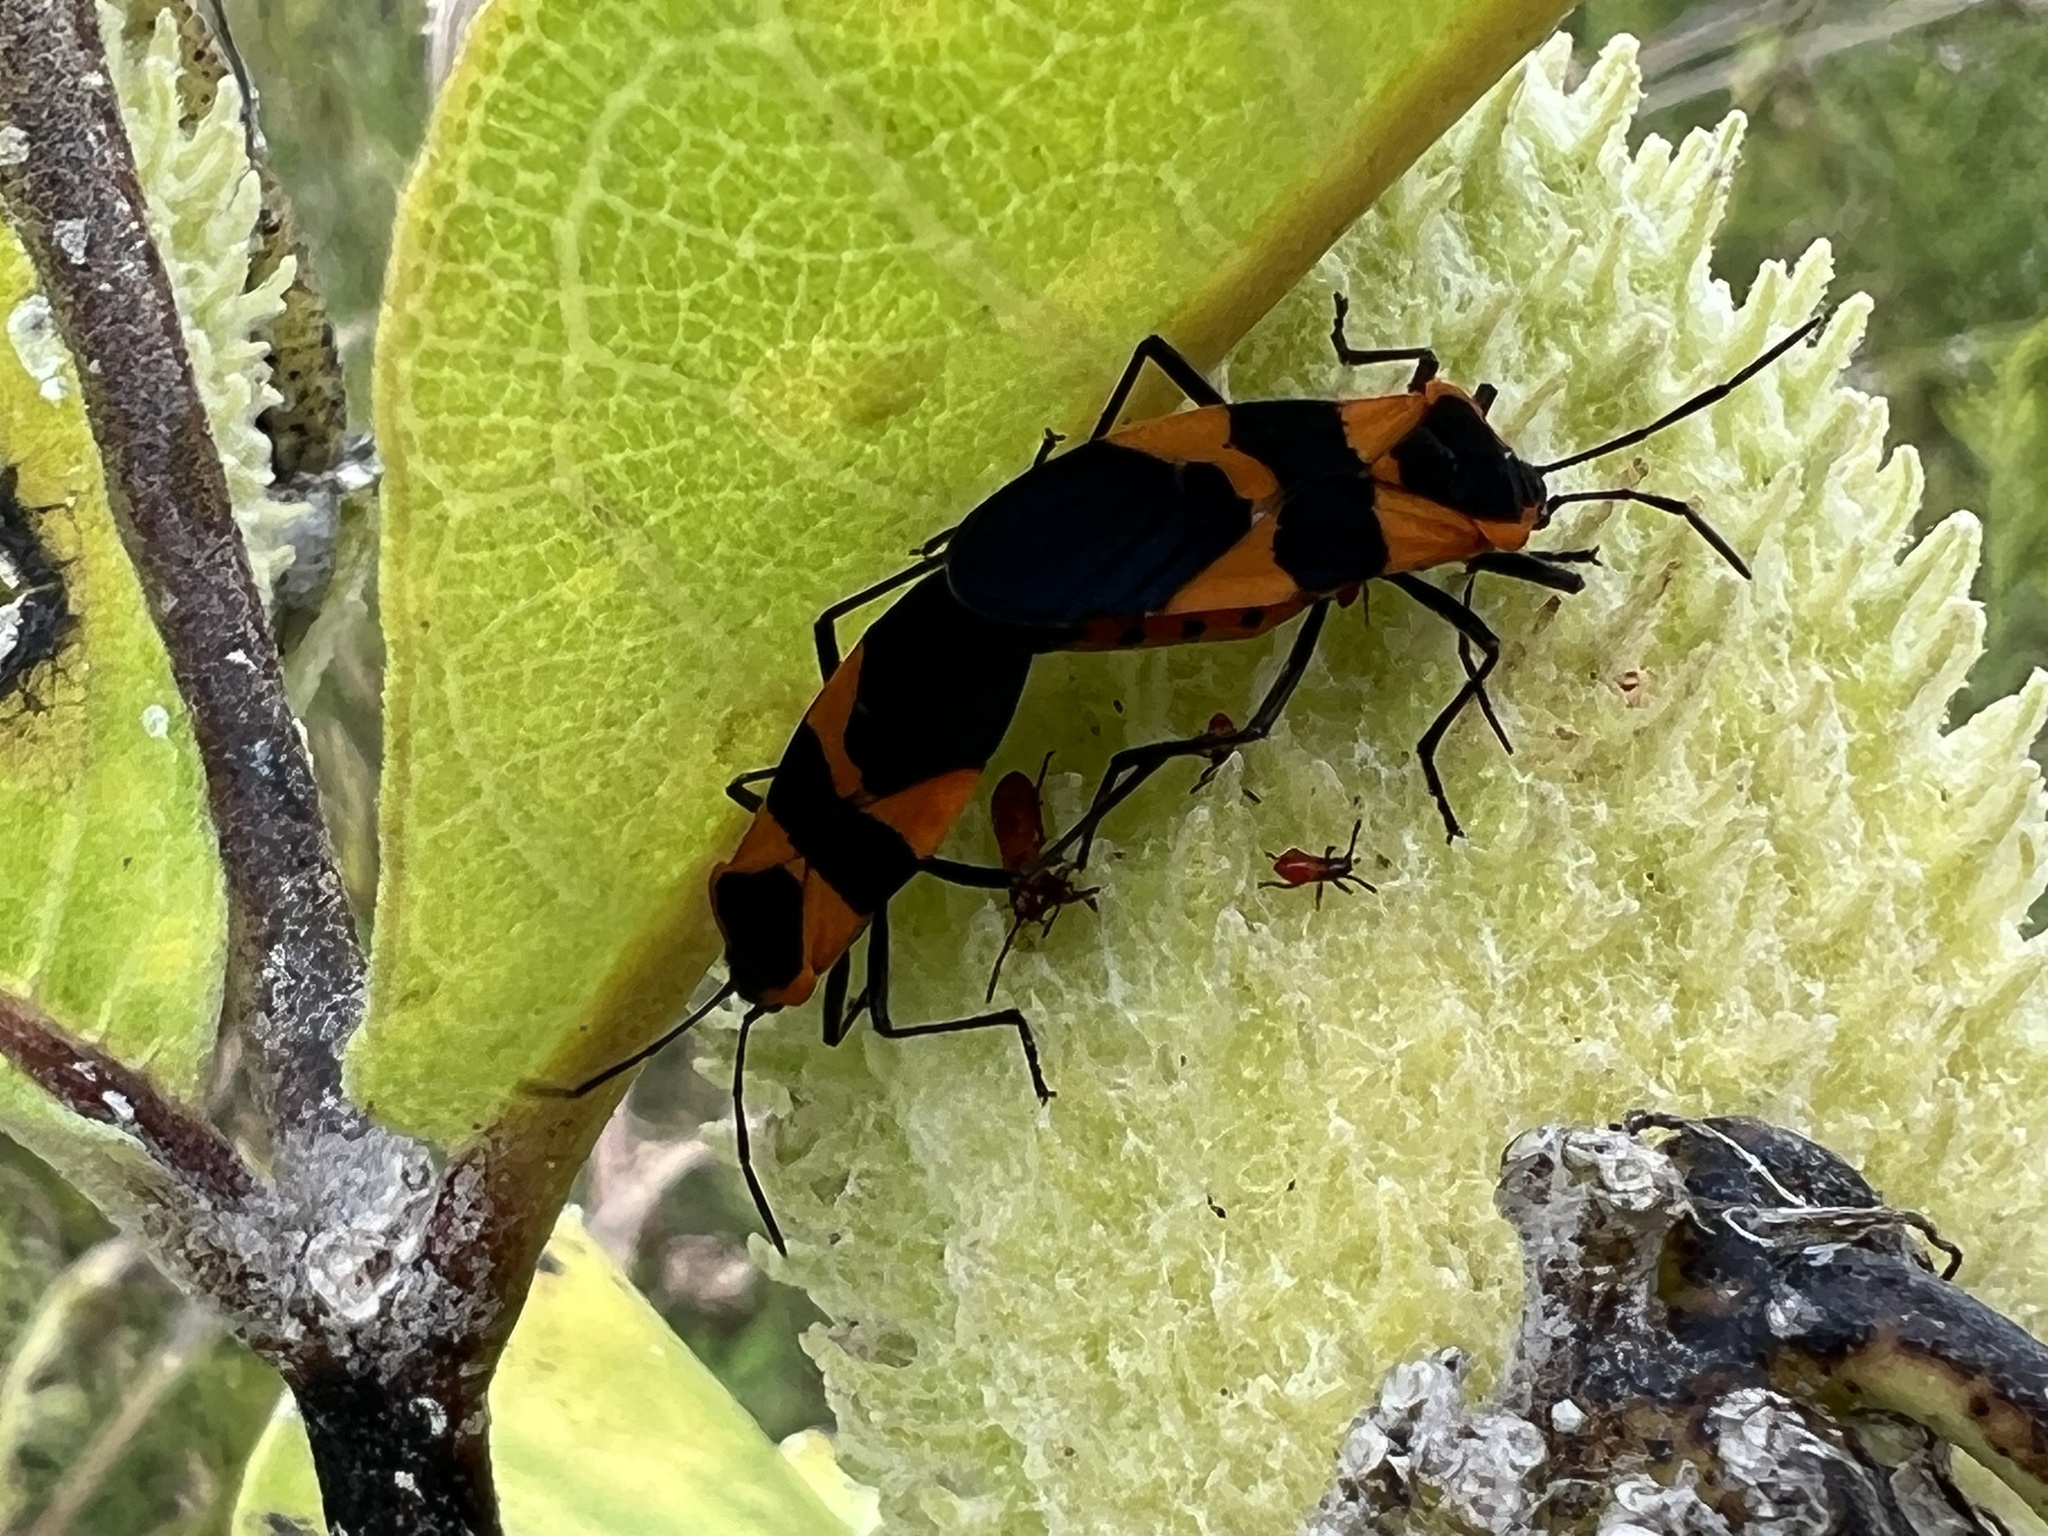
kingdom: Animalia
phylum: Arthropoda
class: Insecta
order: Hemiptera
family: Lygaeidae
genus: Oncopeltus
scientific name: Oncopeltus fasciatus
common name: Large milkweed bug
